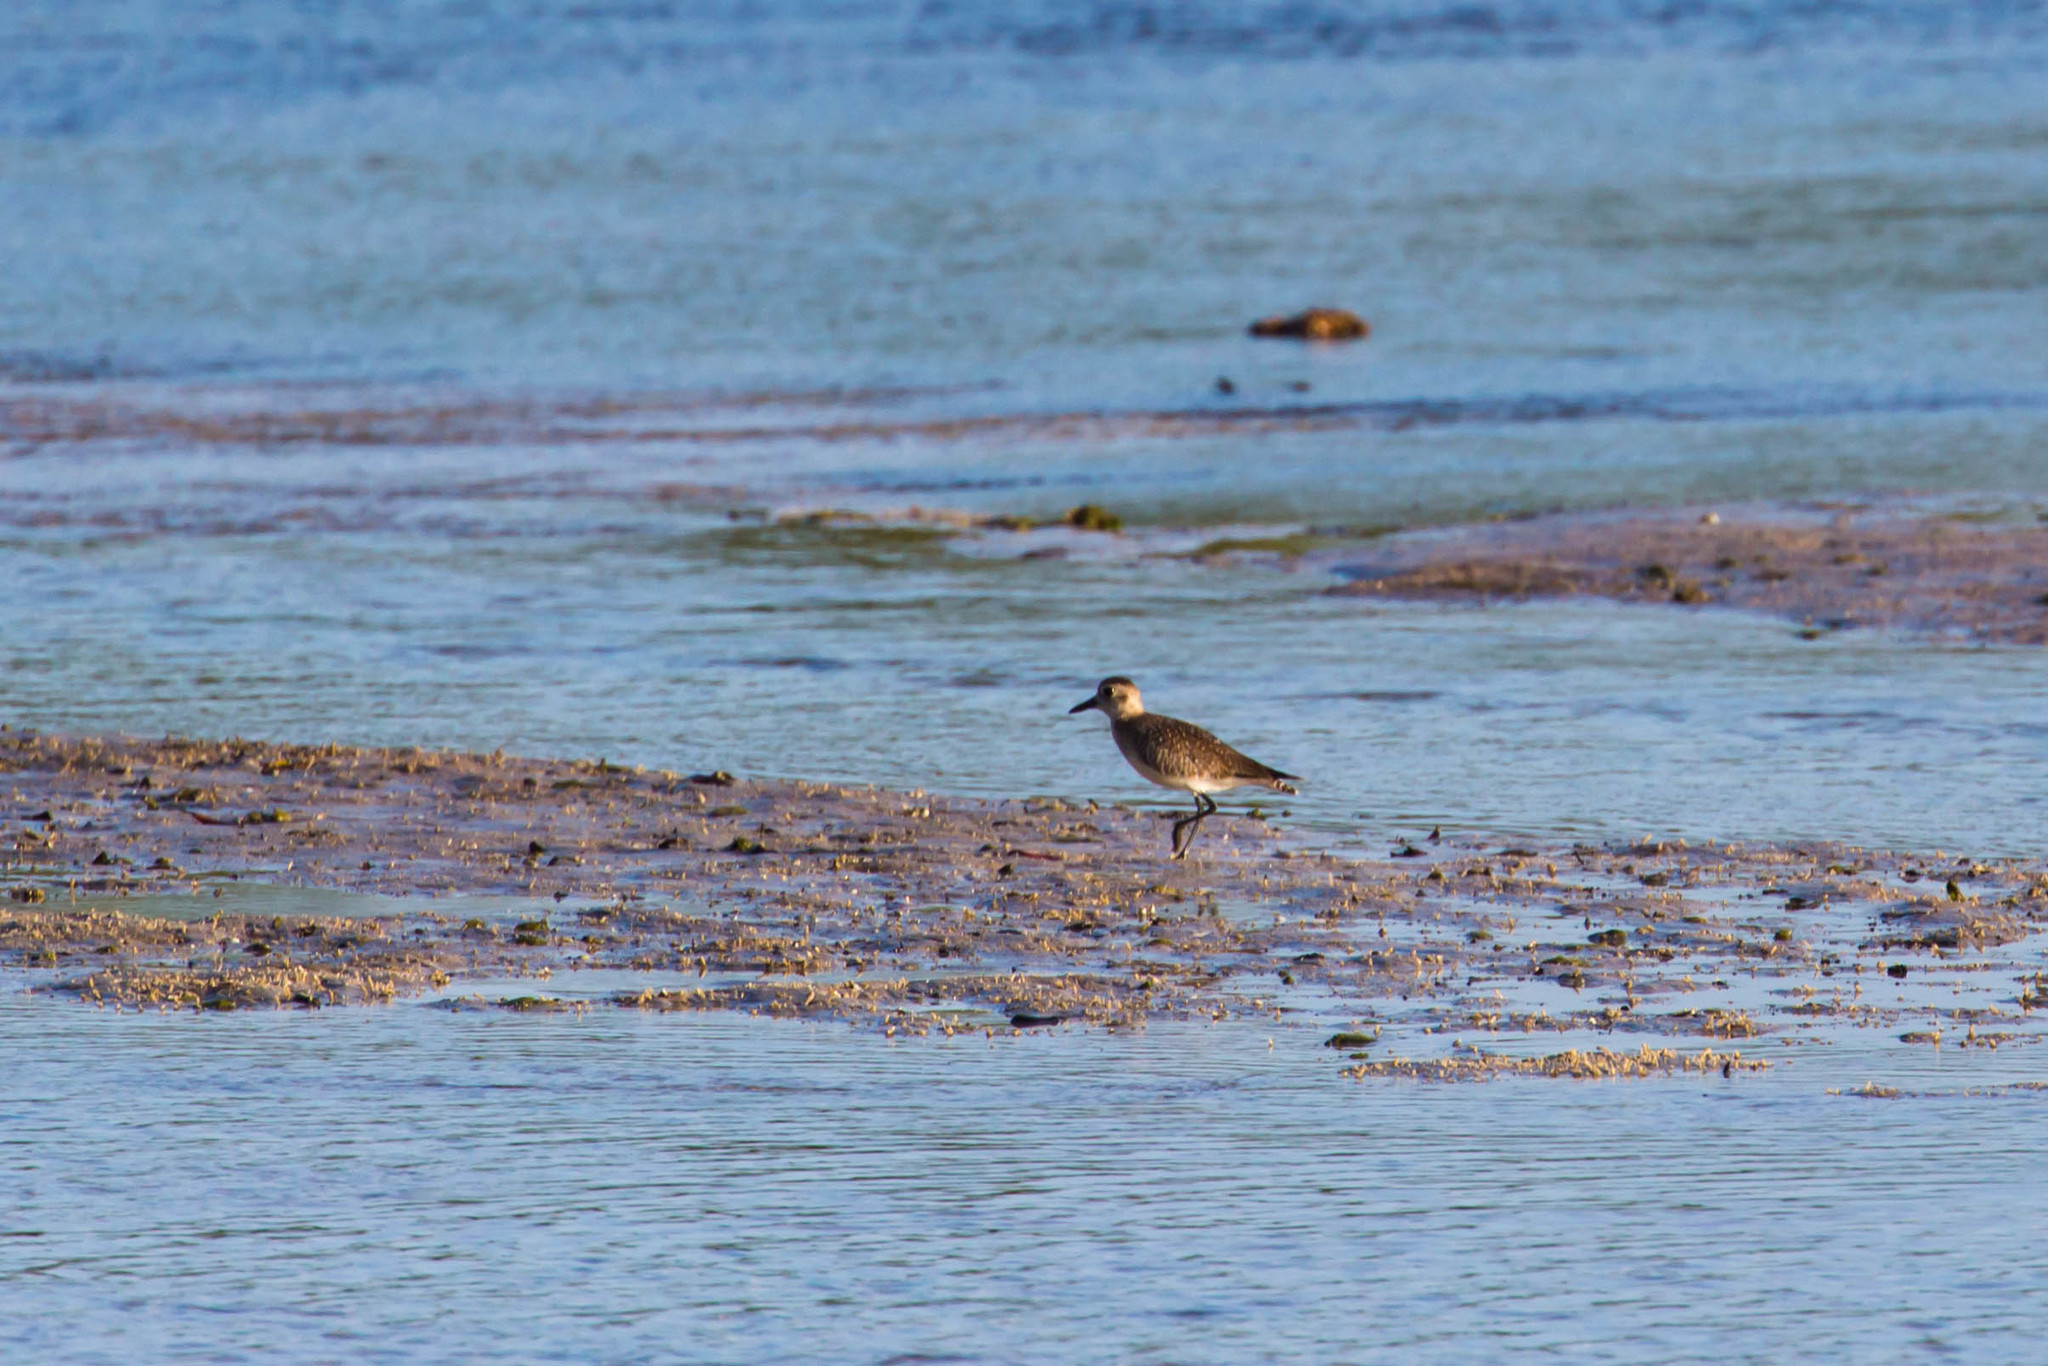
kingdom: Animalia
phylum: Chordata
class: Aves
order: Charadriiformes
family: Charadriidae
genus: Pluvialis
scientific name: Pluvialis squatarola
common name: Grey plover
